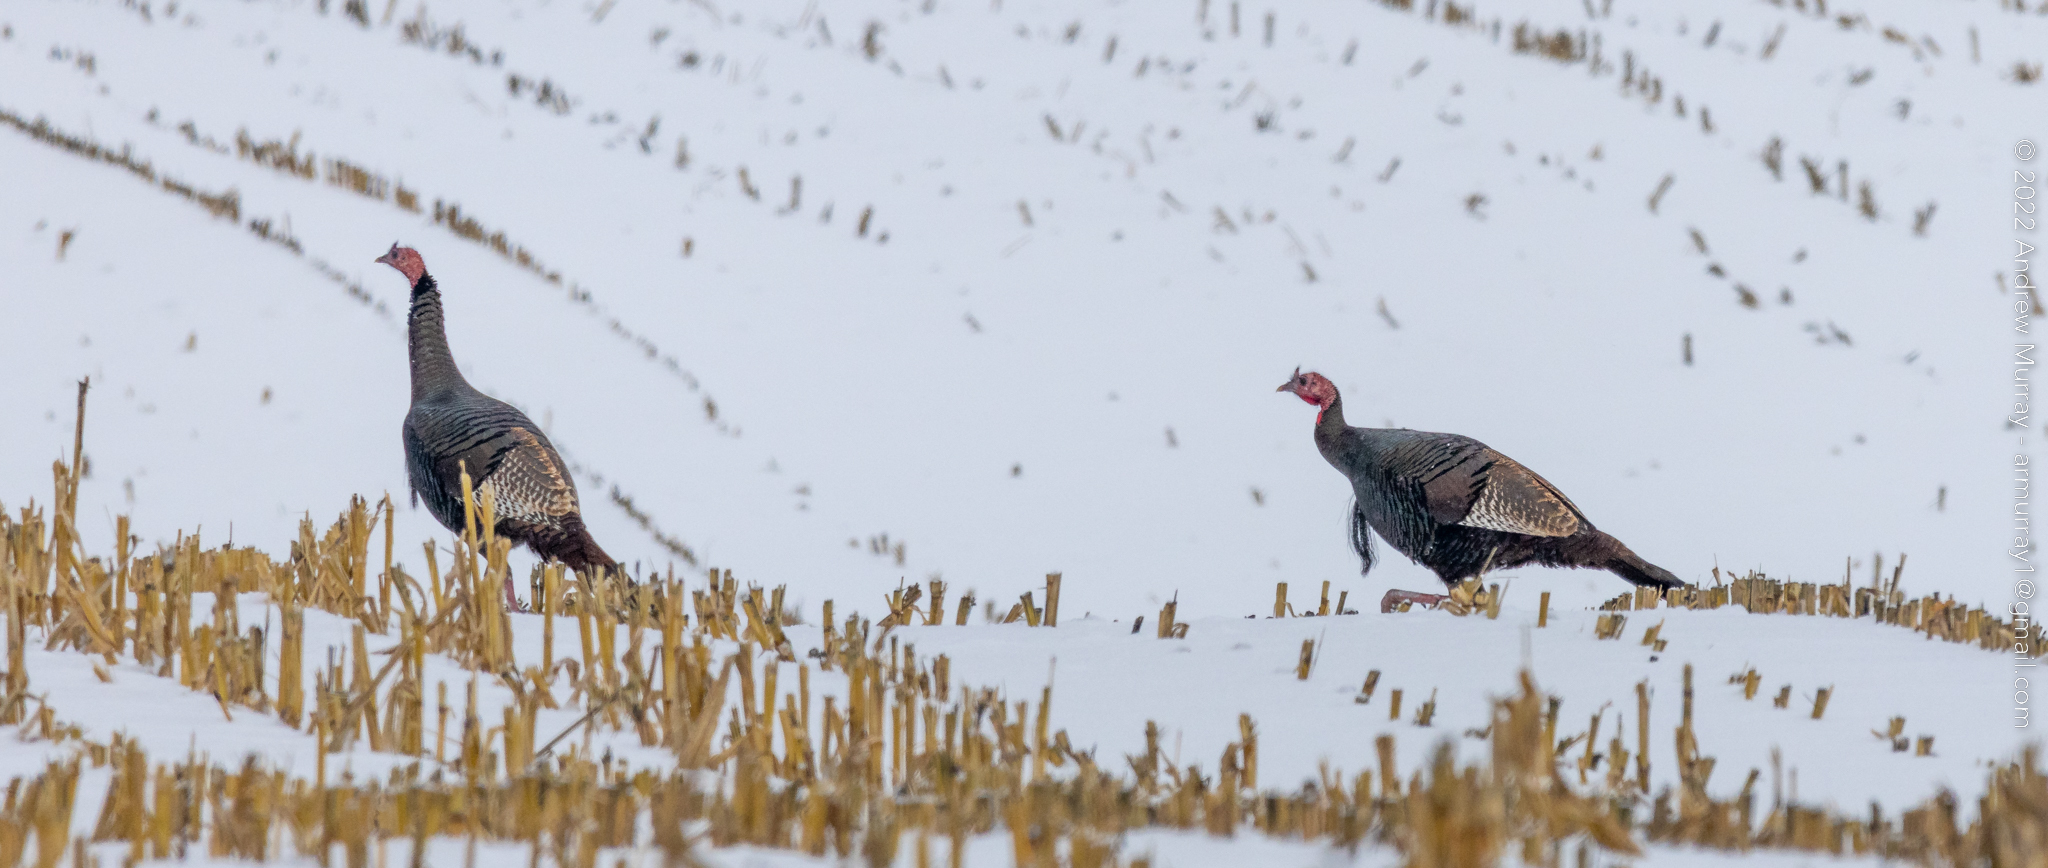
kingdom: Animalia
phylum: Chordata
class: Aves
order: Galliformes
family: Phasianidae
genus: Meleagris
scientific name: Meleagris gallopavo
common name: Wild turkey
